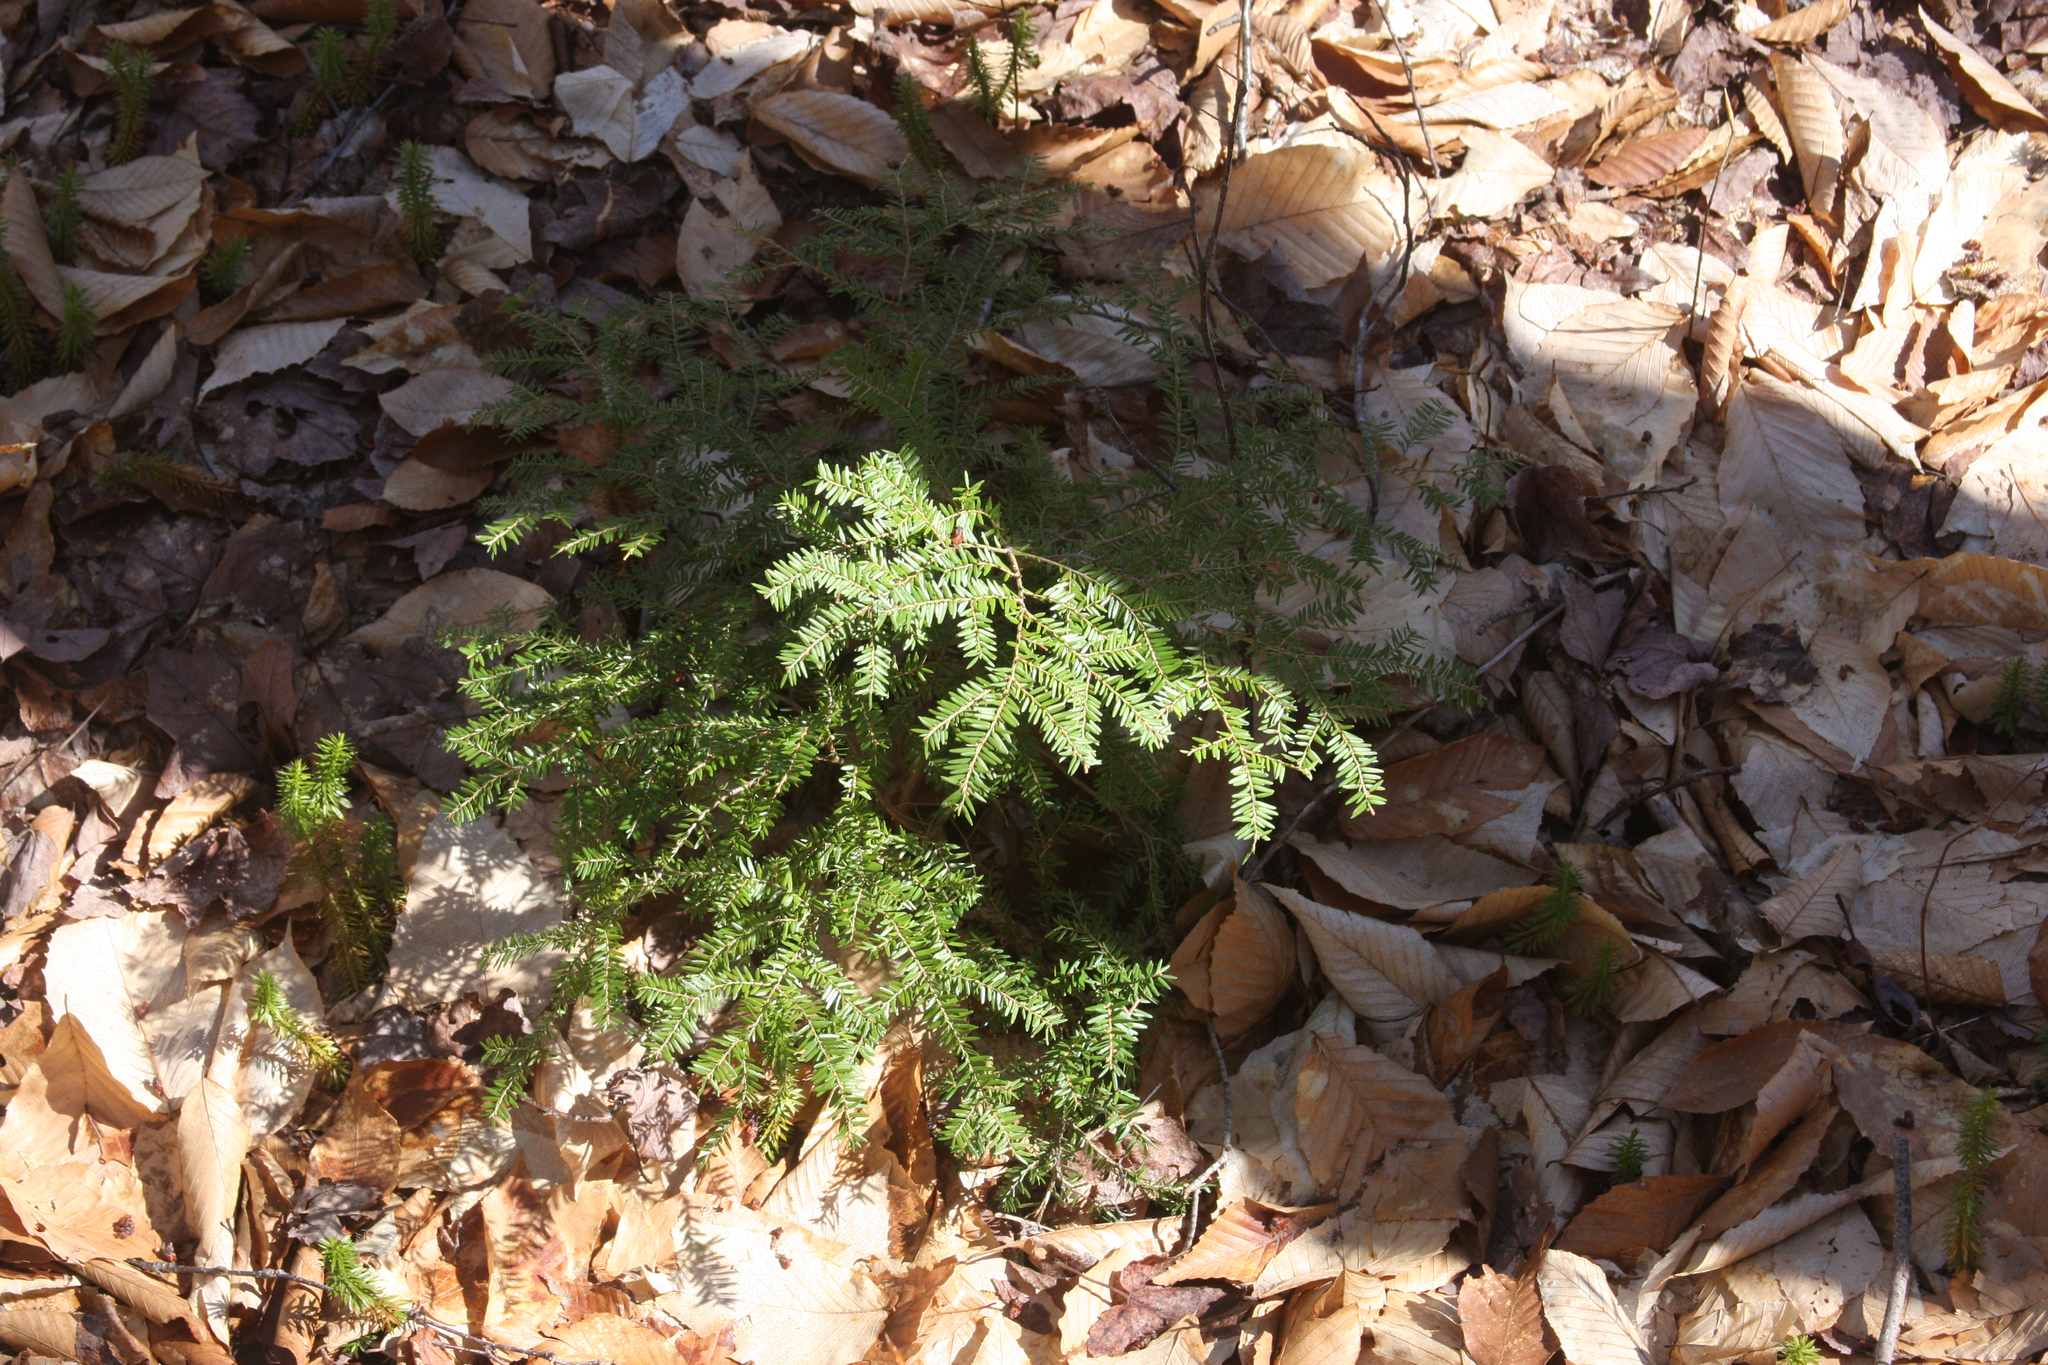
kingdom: Plantae
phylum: Tracheophyta
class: Pinopsida
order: Pinales
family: Pinaceae
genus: Tsuga
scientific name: Tsuga canadensis
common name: Eastern hemlock
